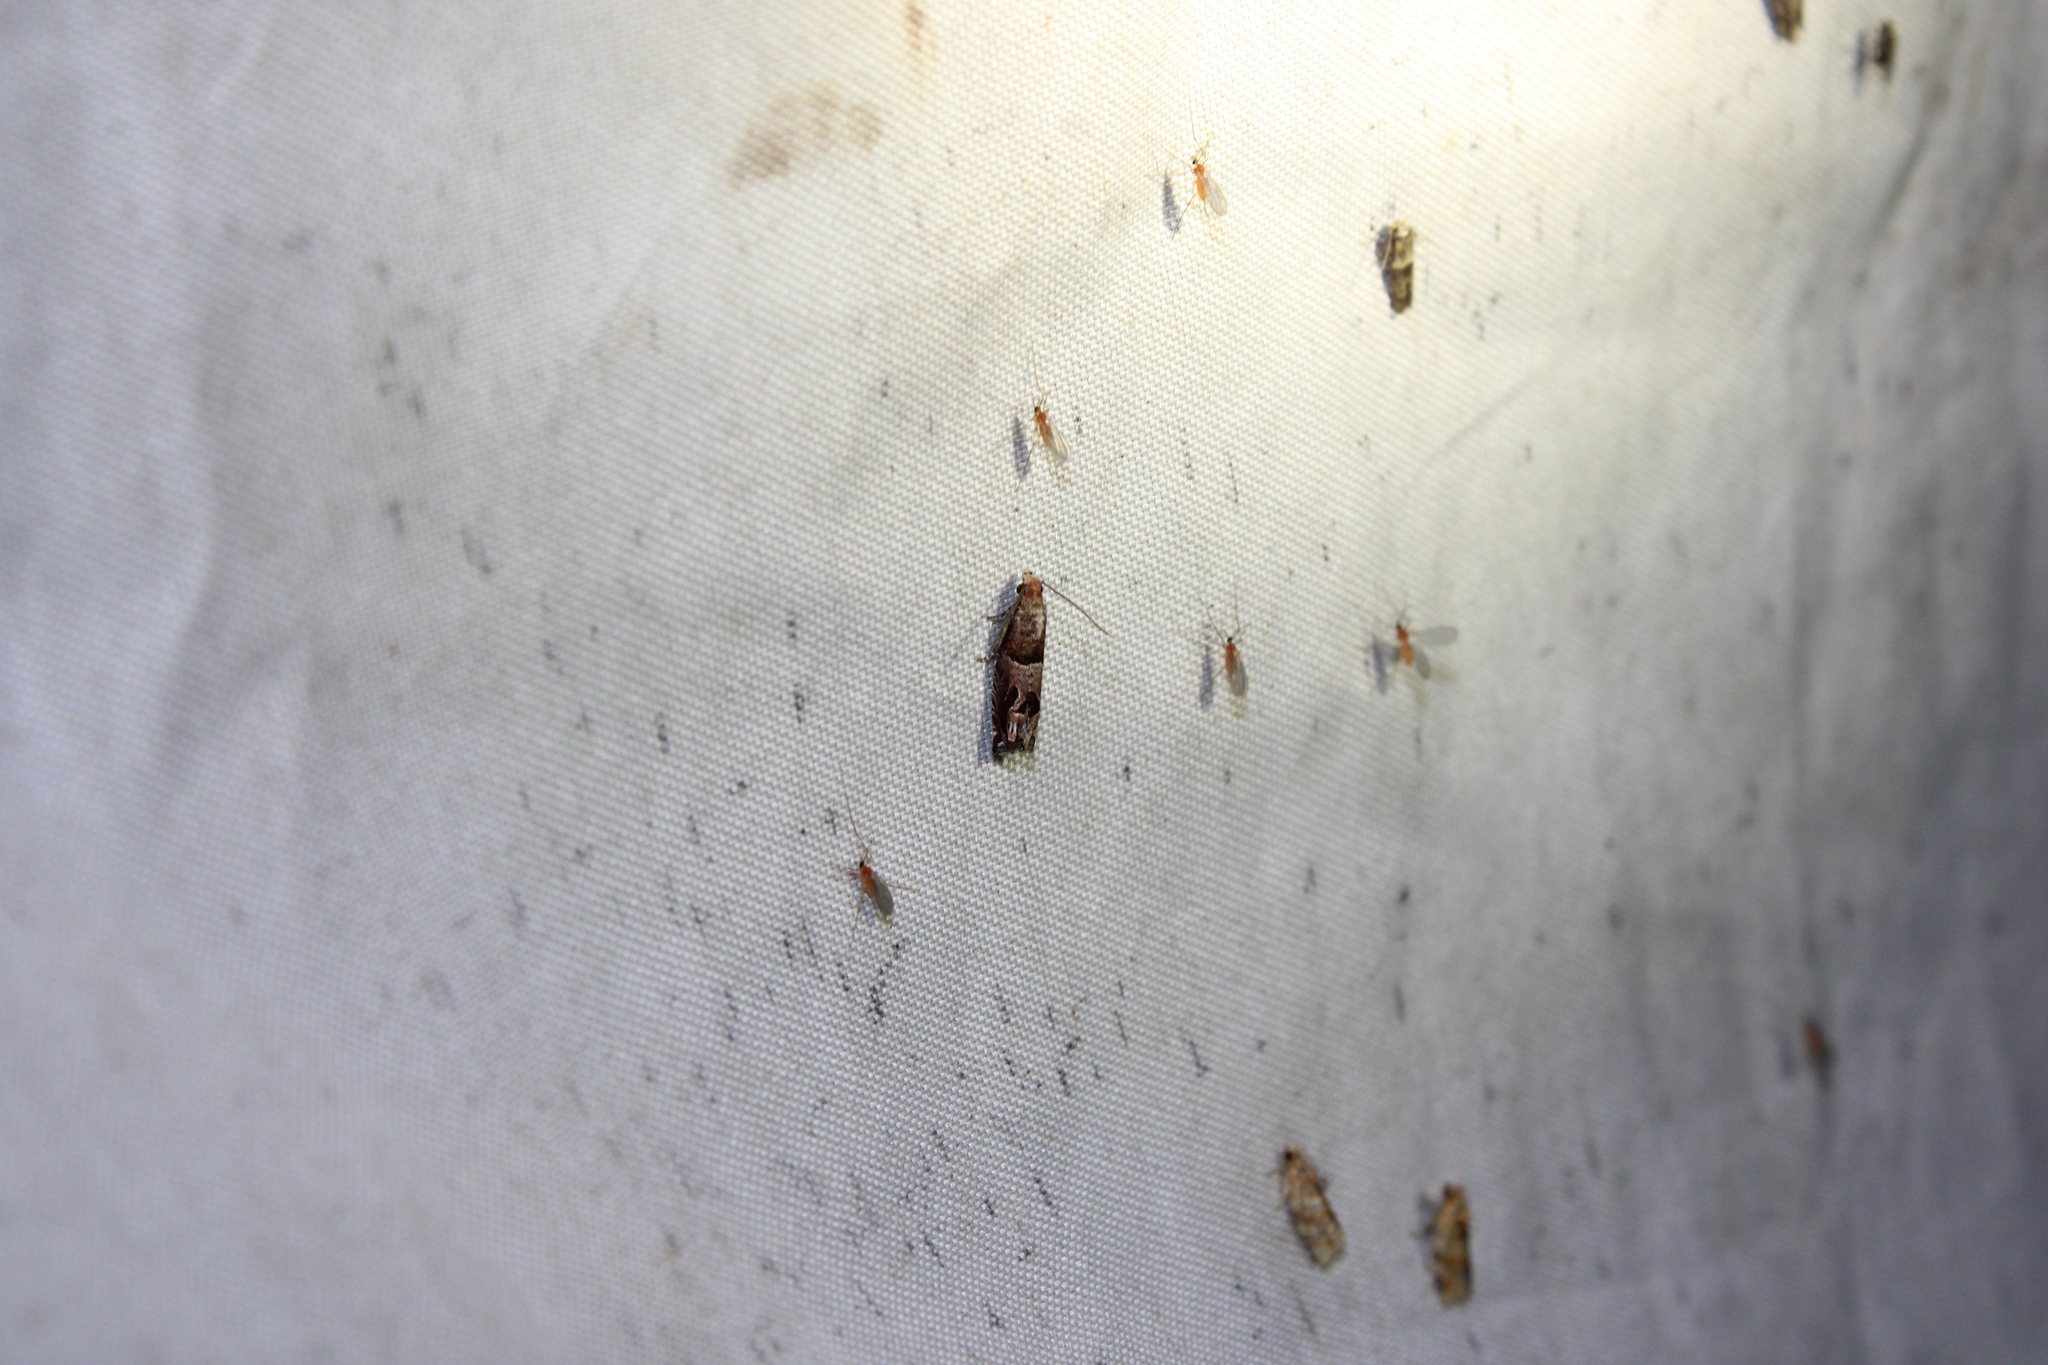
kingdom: Animalia
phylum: Arthropoda
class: Insecta
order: Lepidoptera
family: Tortricidae
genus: Sonia
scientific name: Sonia paraplesiana
